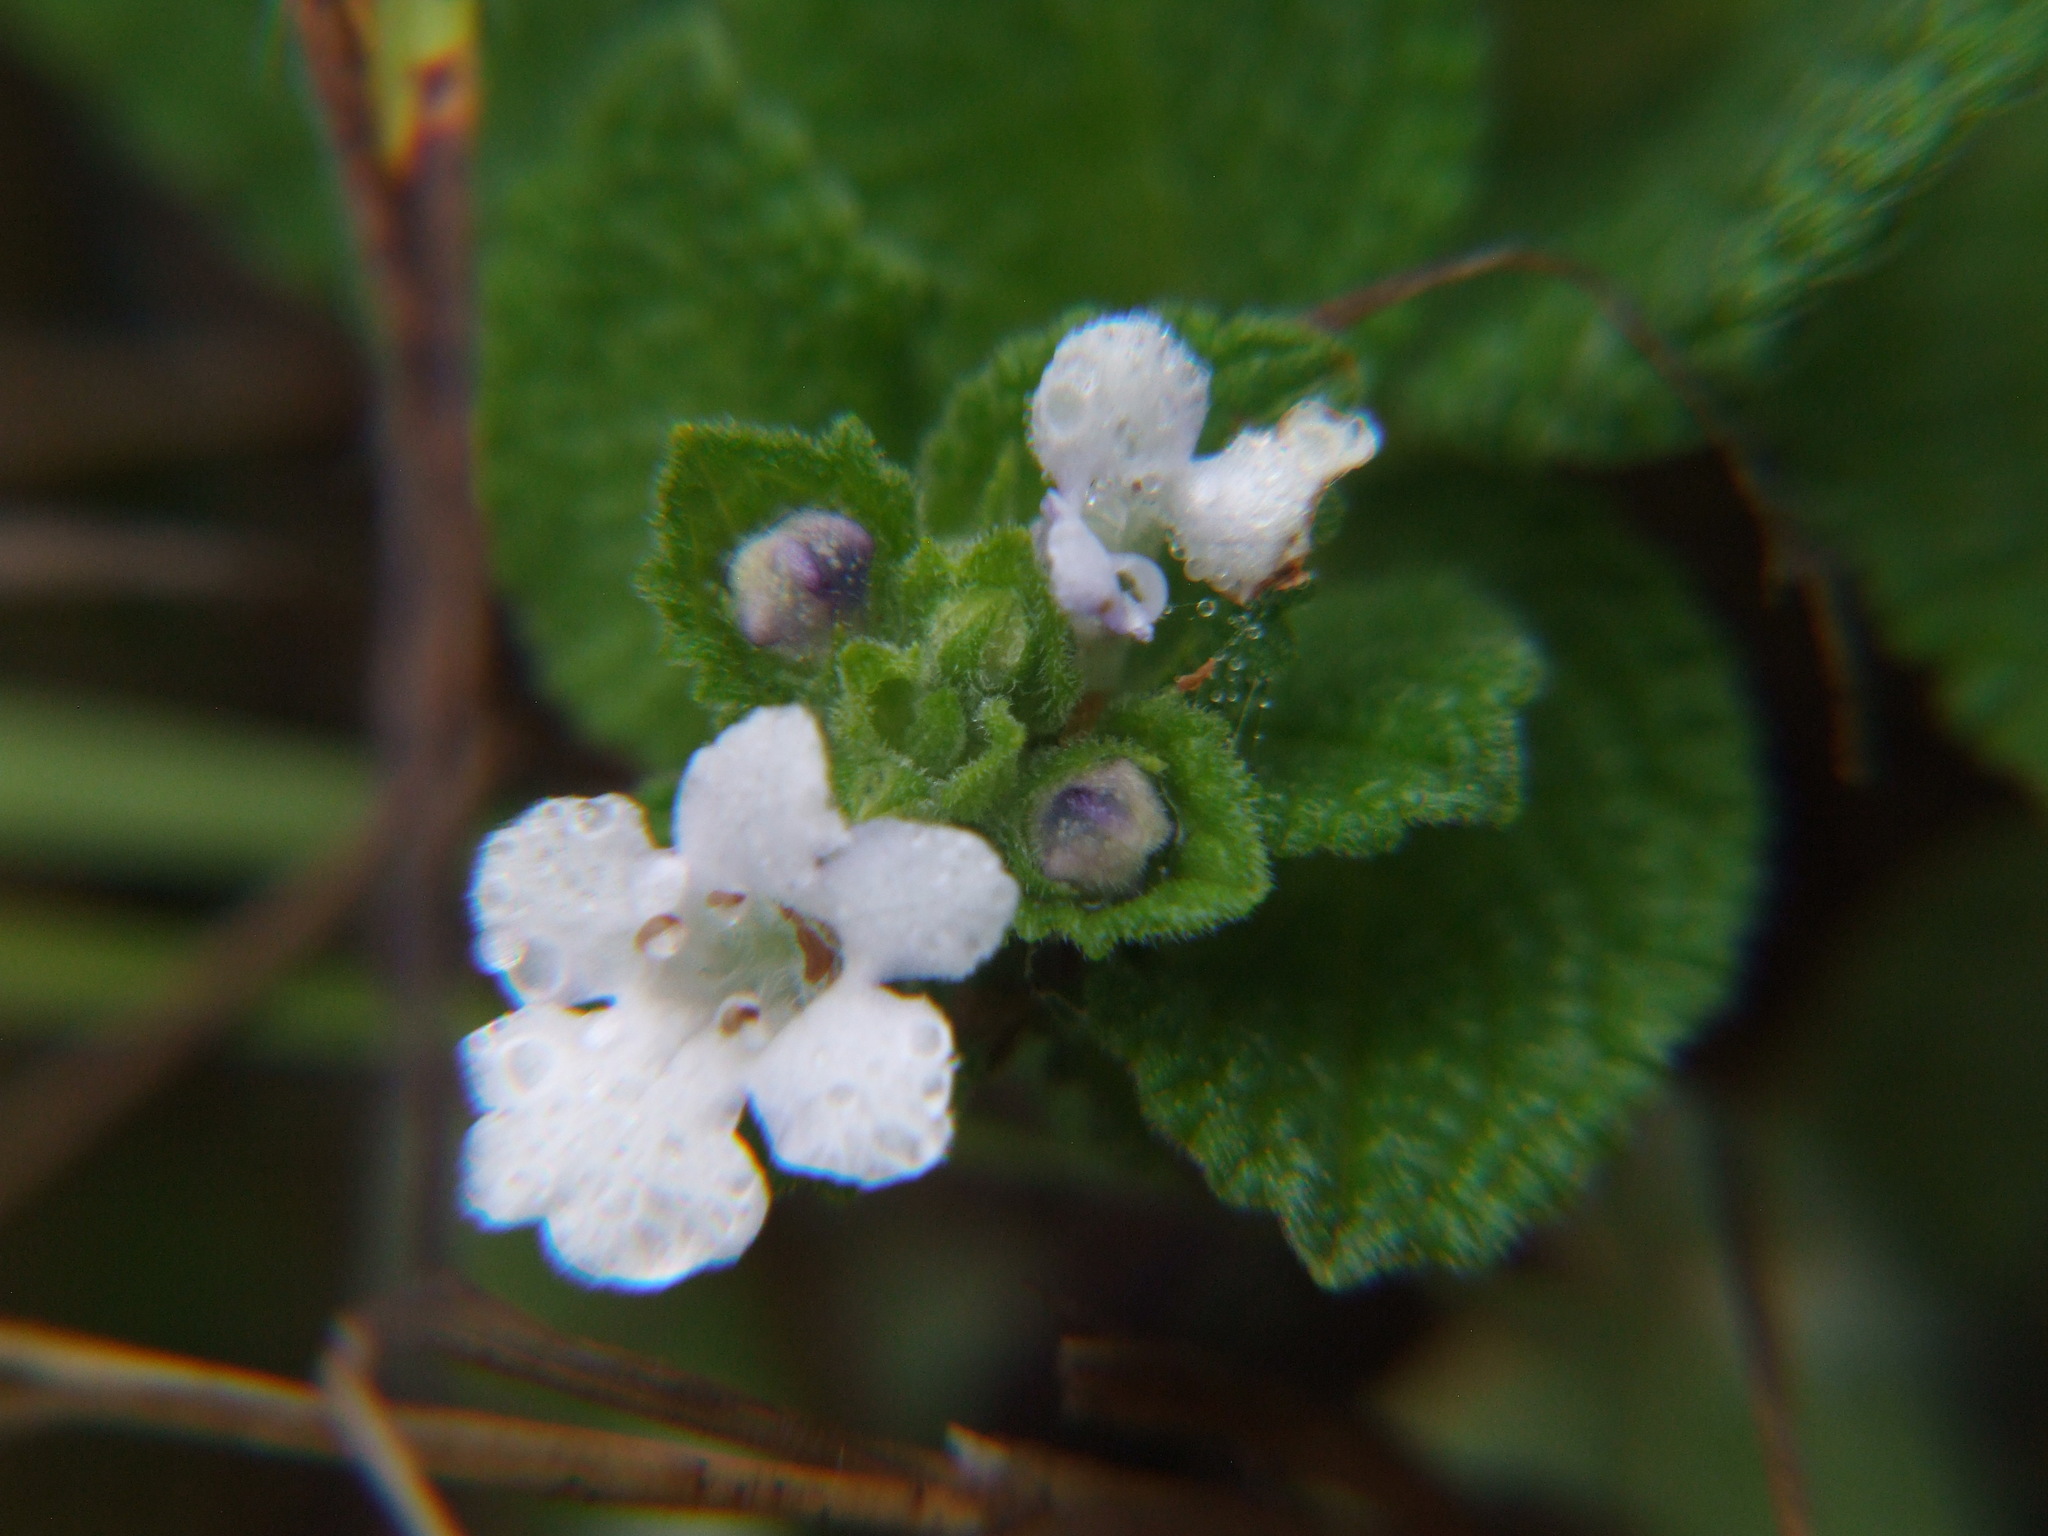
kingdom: Plantae
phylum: Tracheophyta
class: Magnoliopsida
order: Lamiales
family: Lamiaceae
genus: Lepechinia
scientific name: Lepechinia meyenii
